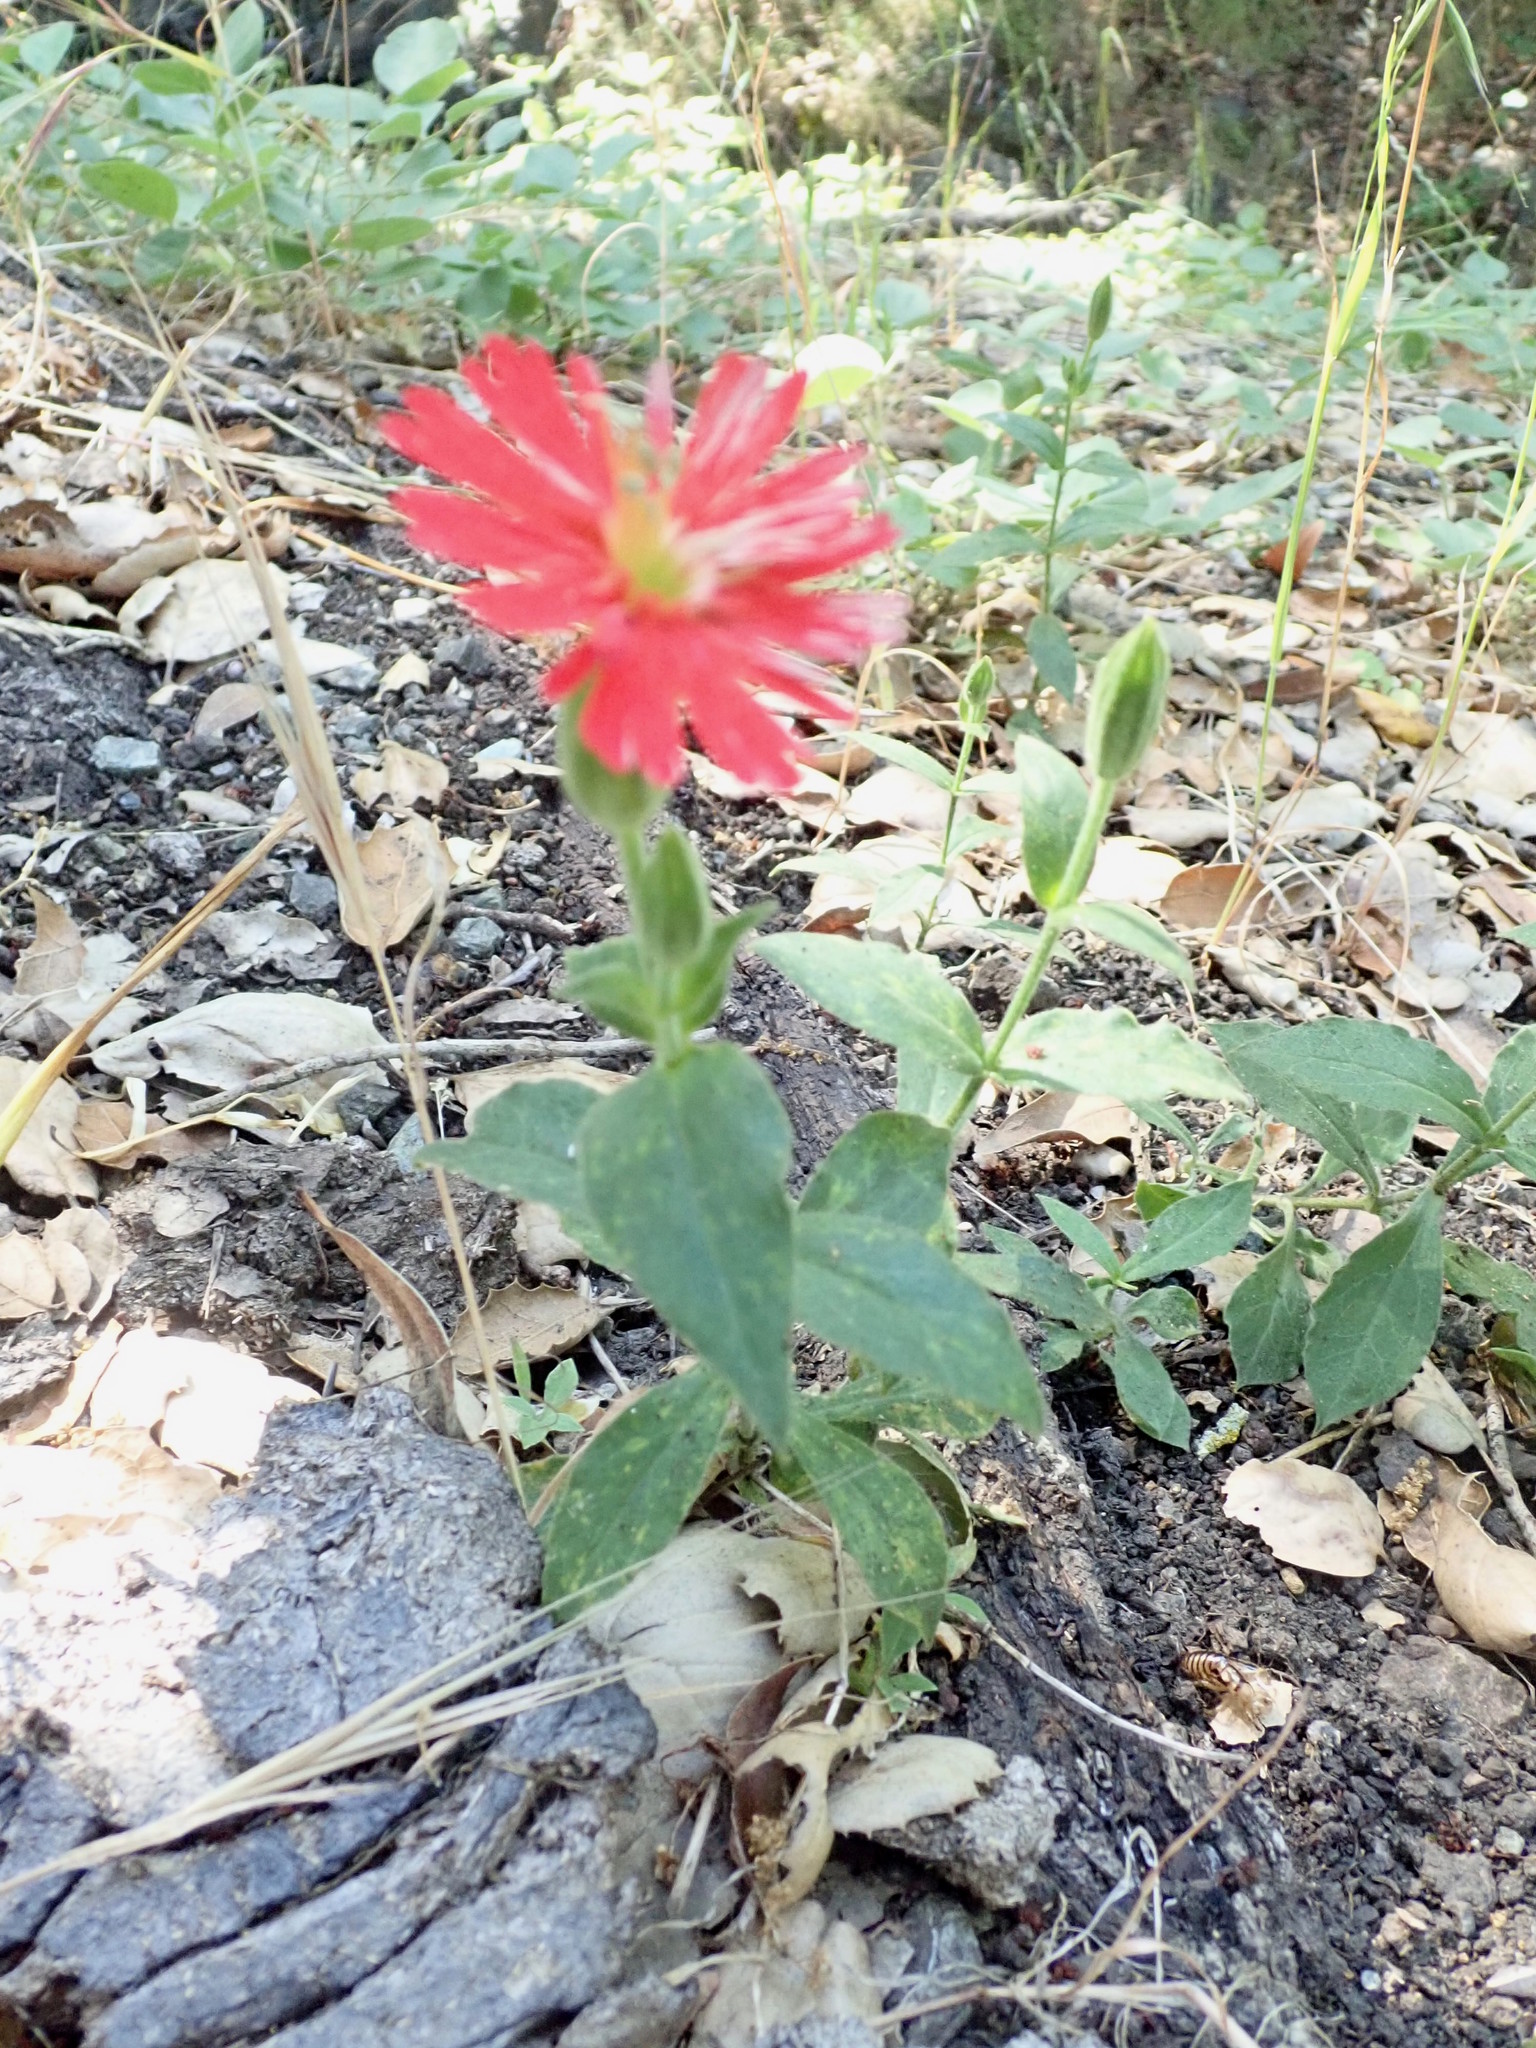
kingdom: Plantae
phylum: Tracheophyta
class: Magnoliopsida
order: Caryophyllales
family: Caryophyllaceae
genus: Silene
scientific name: Silene laciniata
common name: Indian-pink
